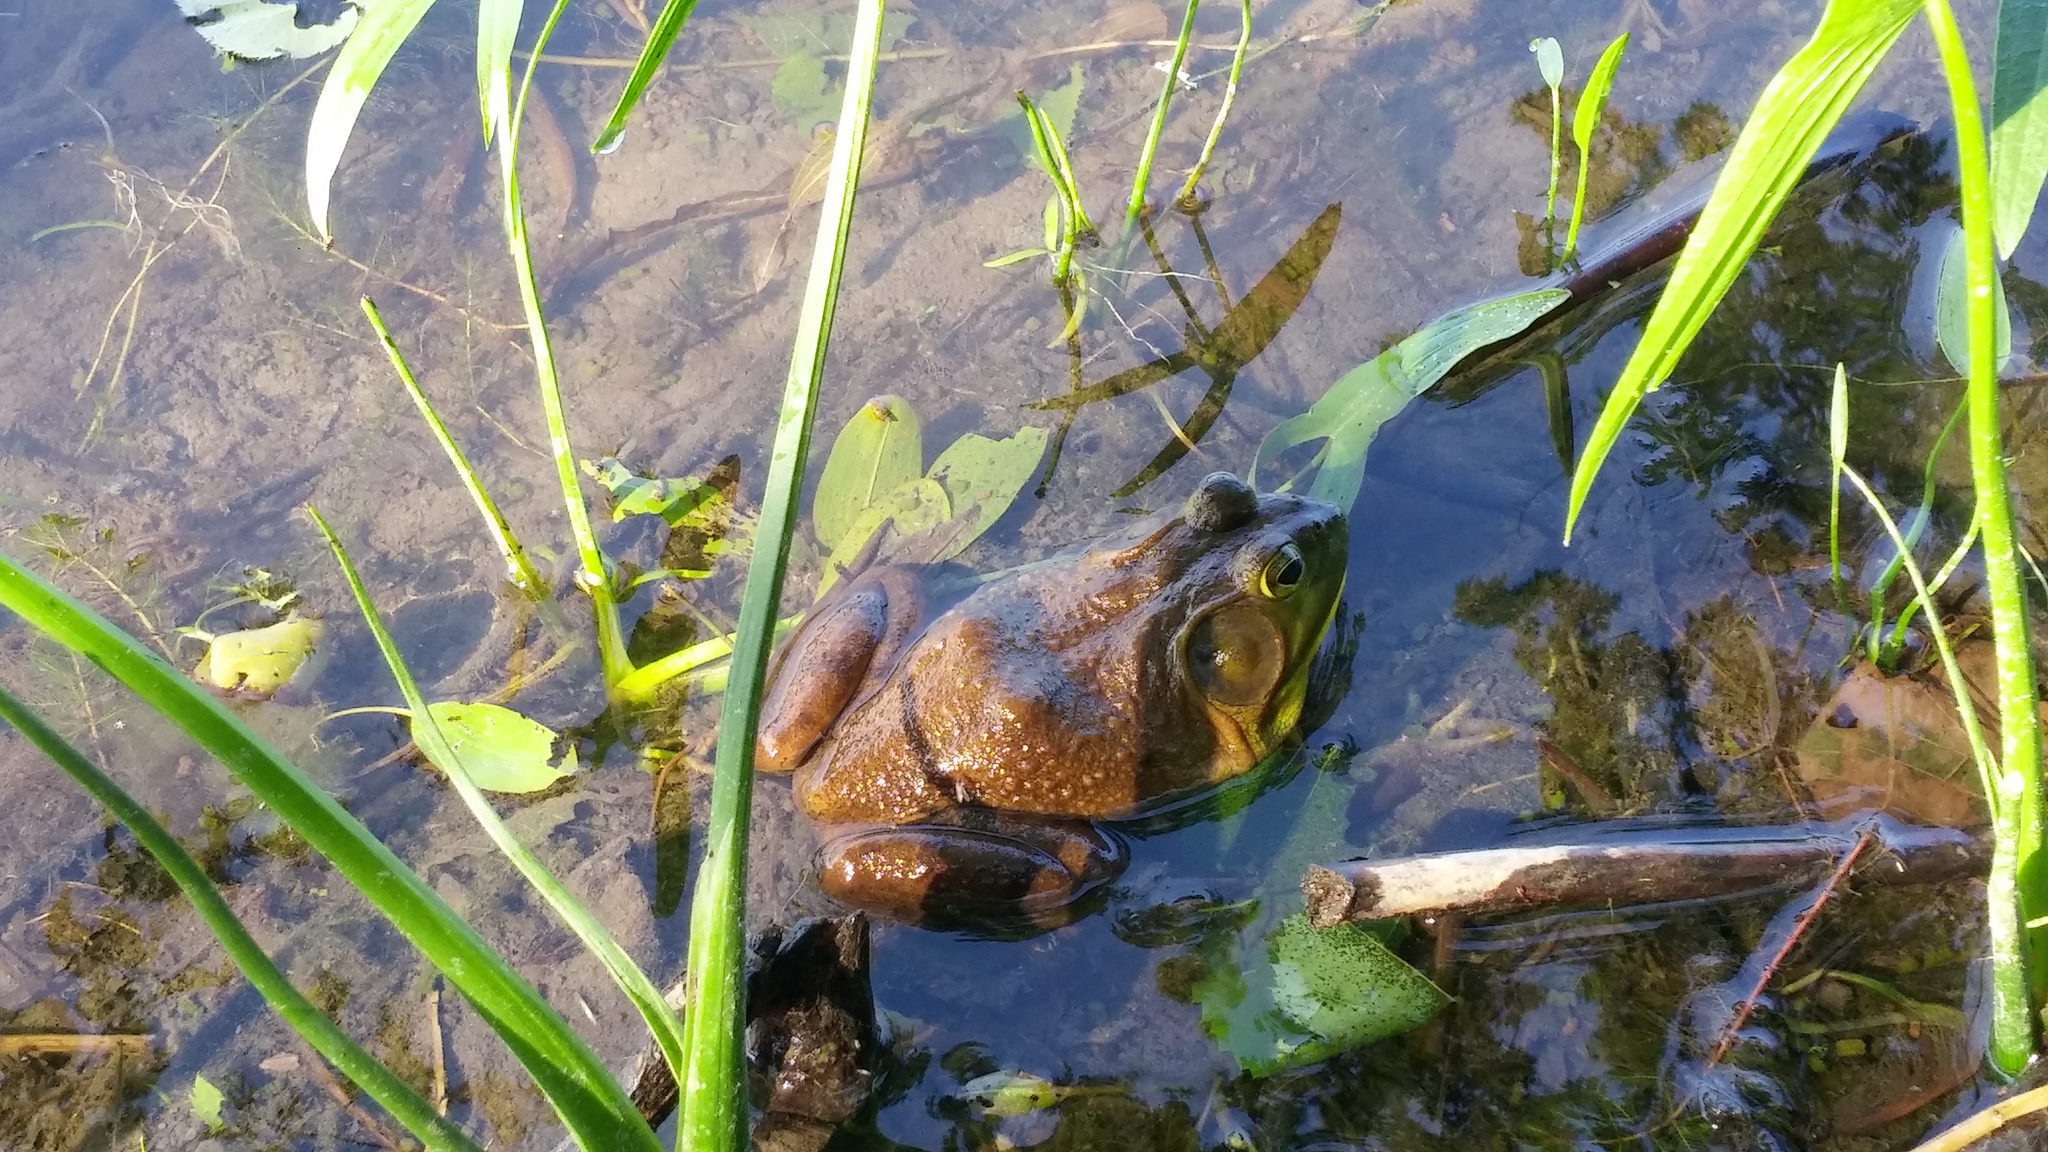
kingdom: Animalia
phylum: Chordata
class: Amphibia
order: Anura
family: Ranidae
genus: Lithobates
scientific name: Lithobates catesbeianus
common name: American bullfrog
